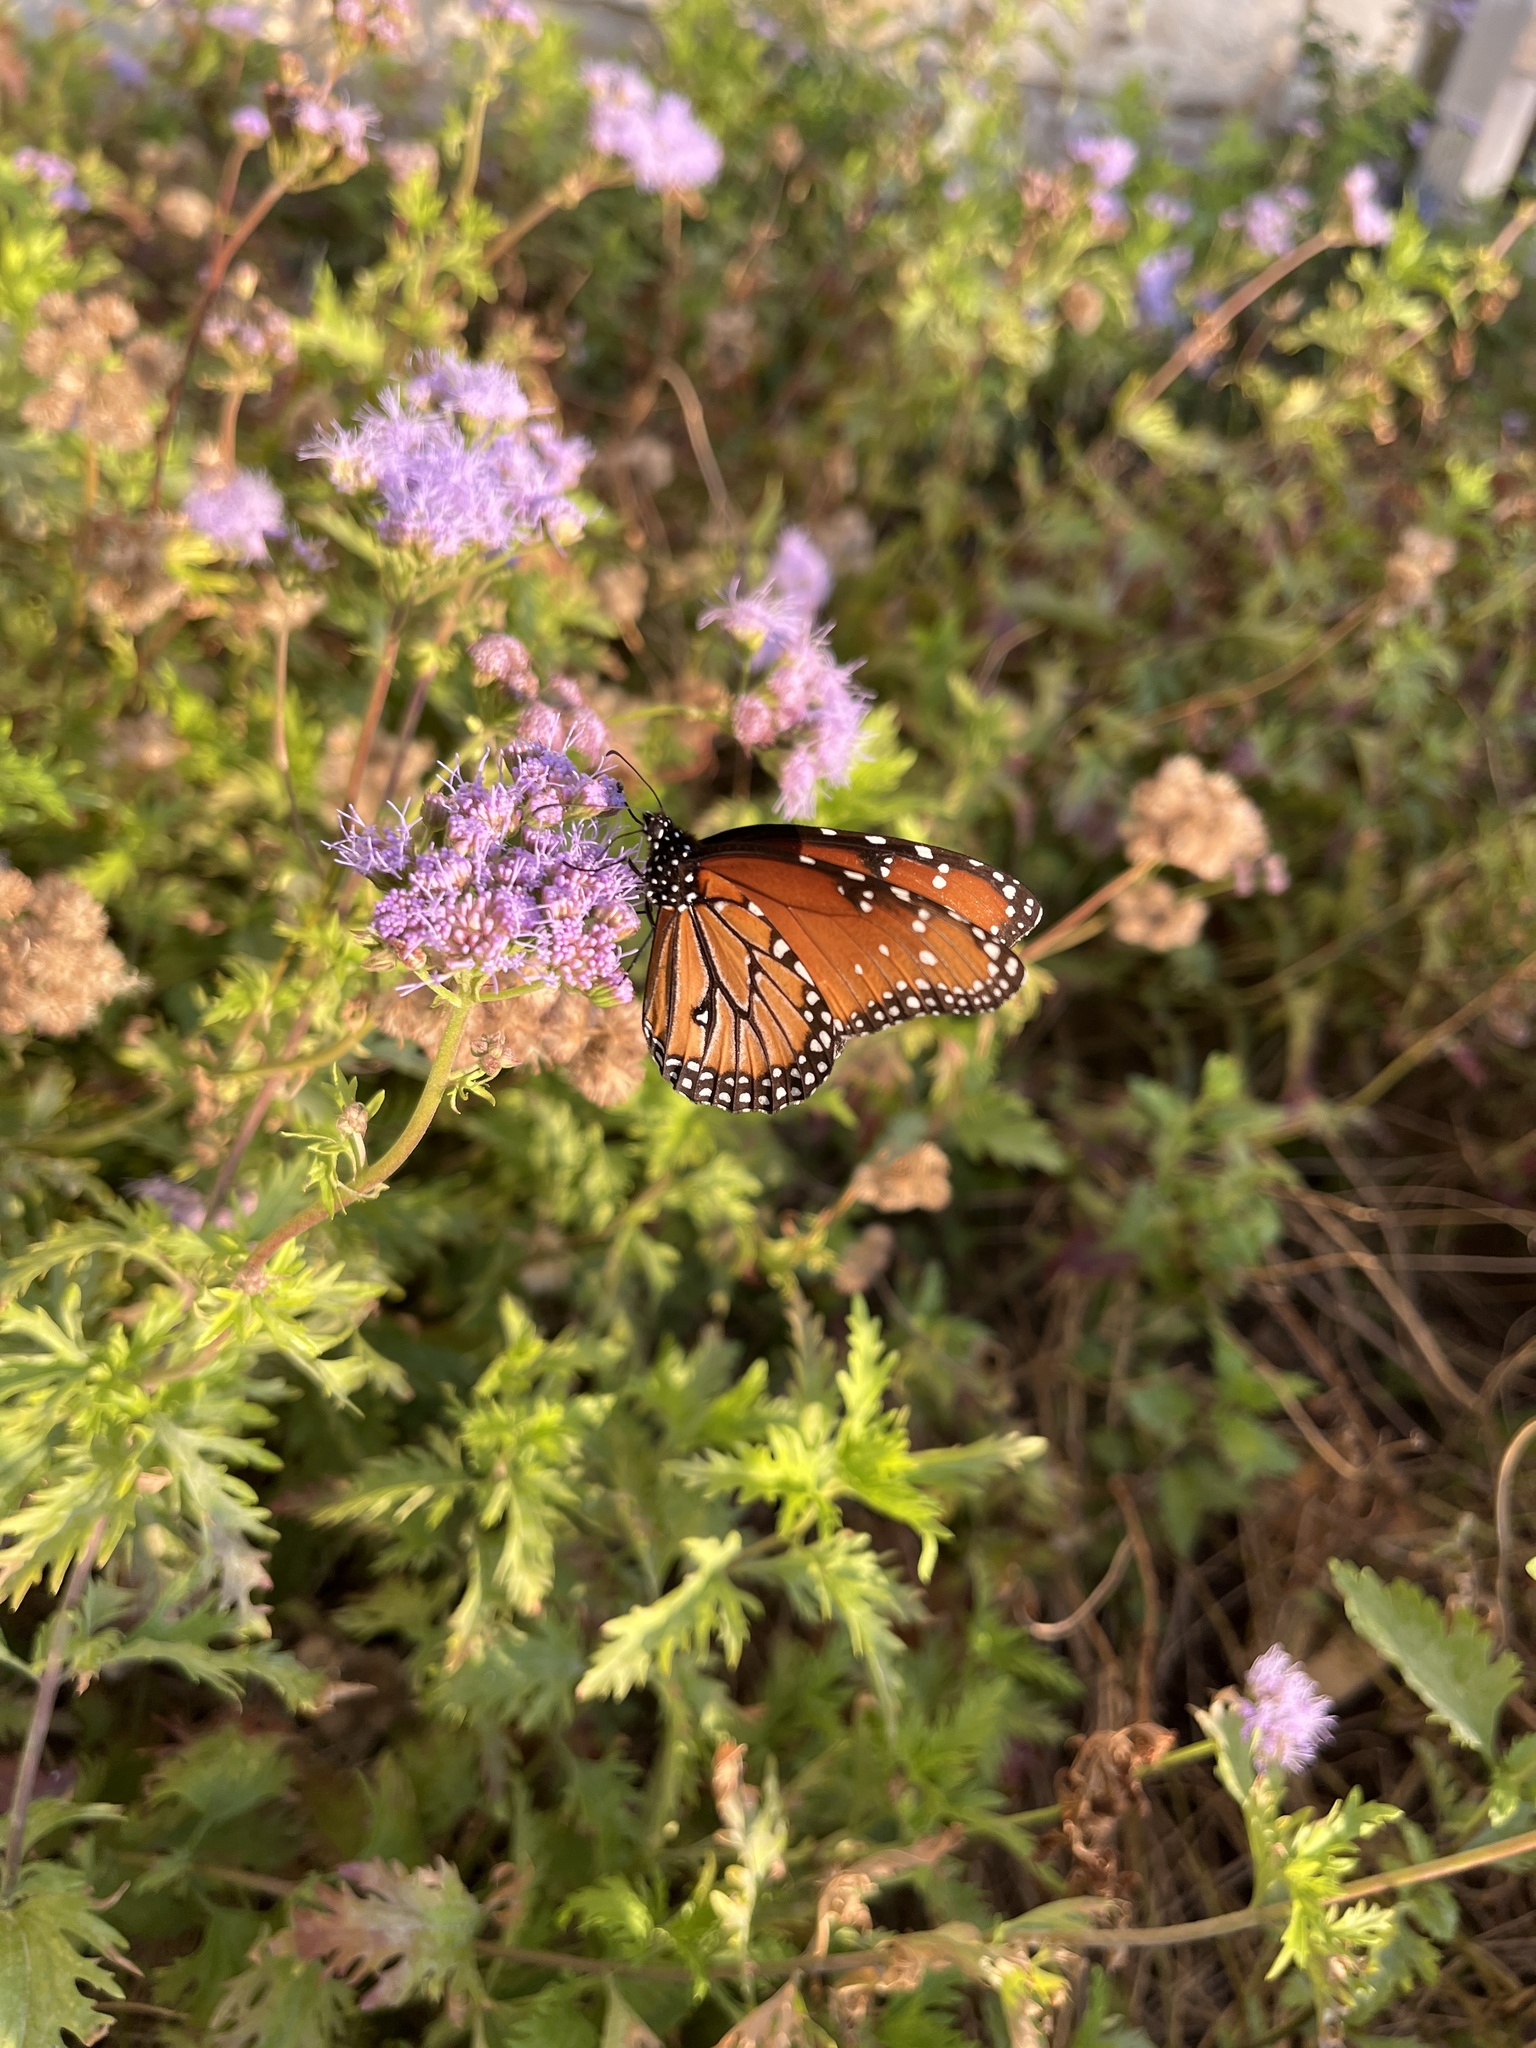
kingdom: Animalia
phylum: Arthropoda
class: Insecta
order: Lepidoptera
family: Nymphalidae
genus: Danaus
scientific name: Danaus gilippus
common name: Queen
